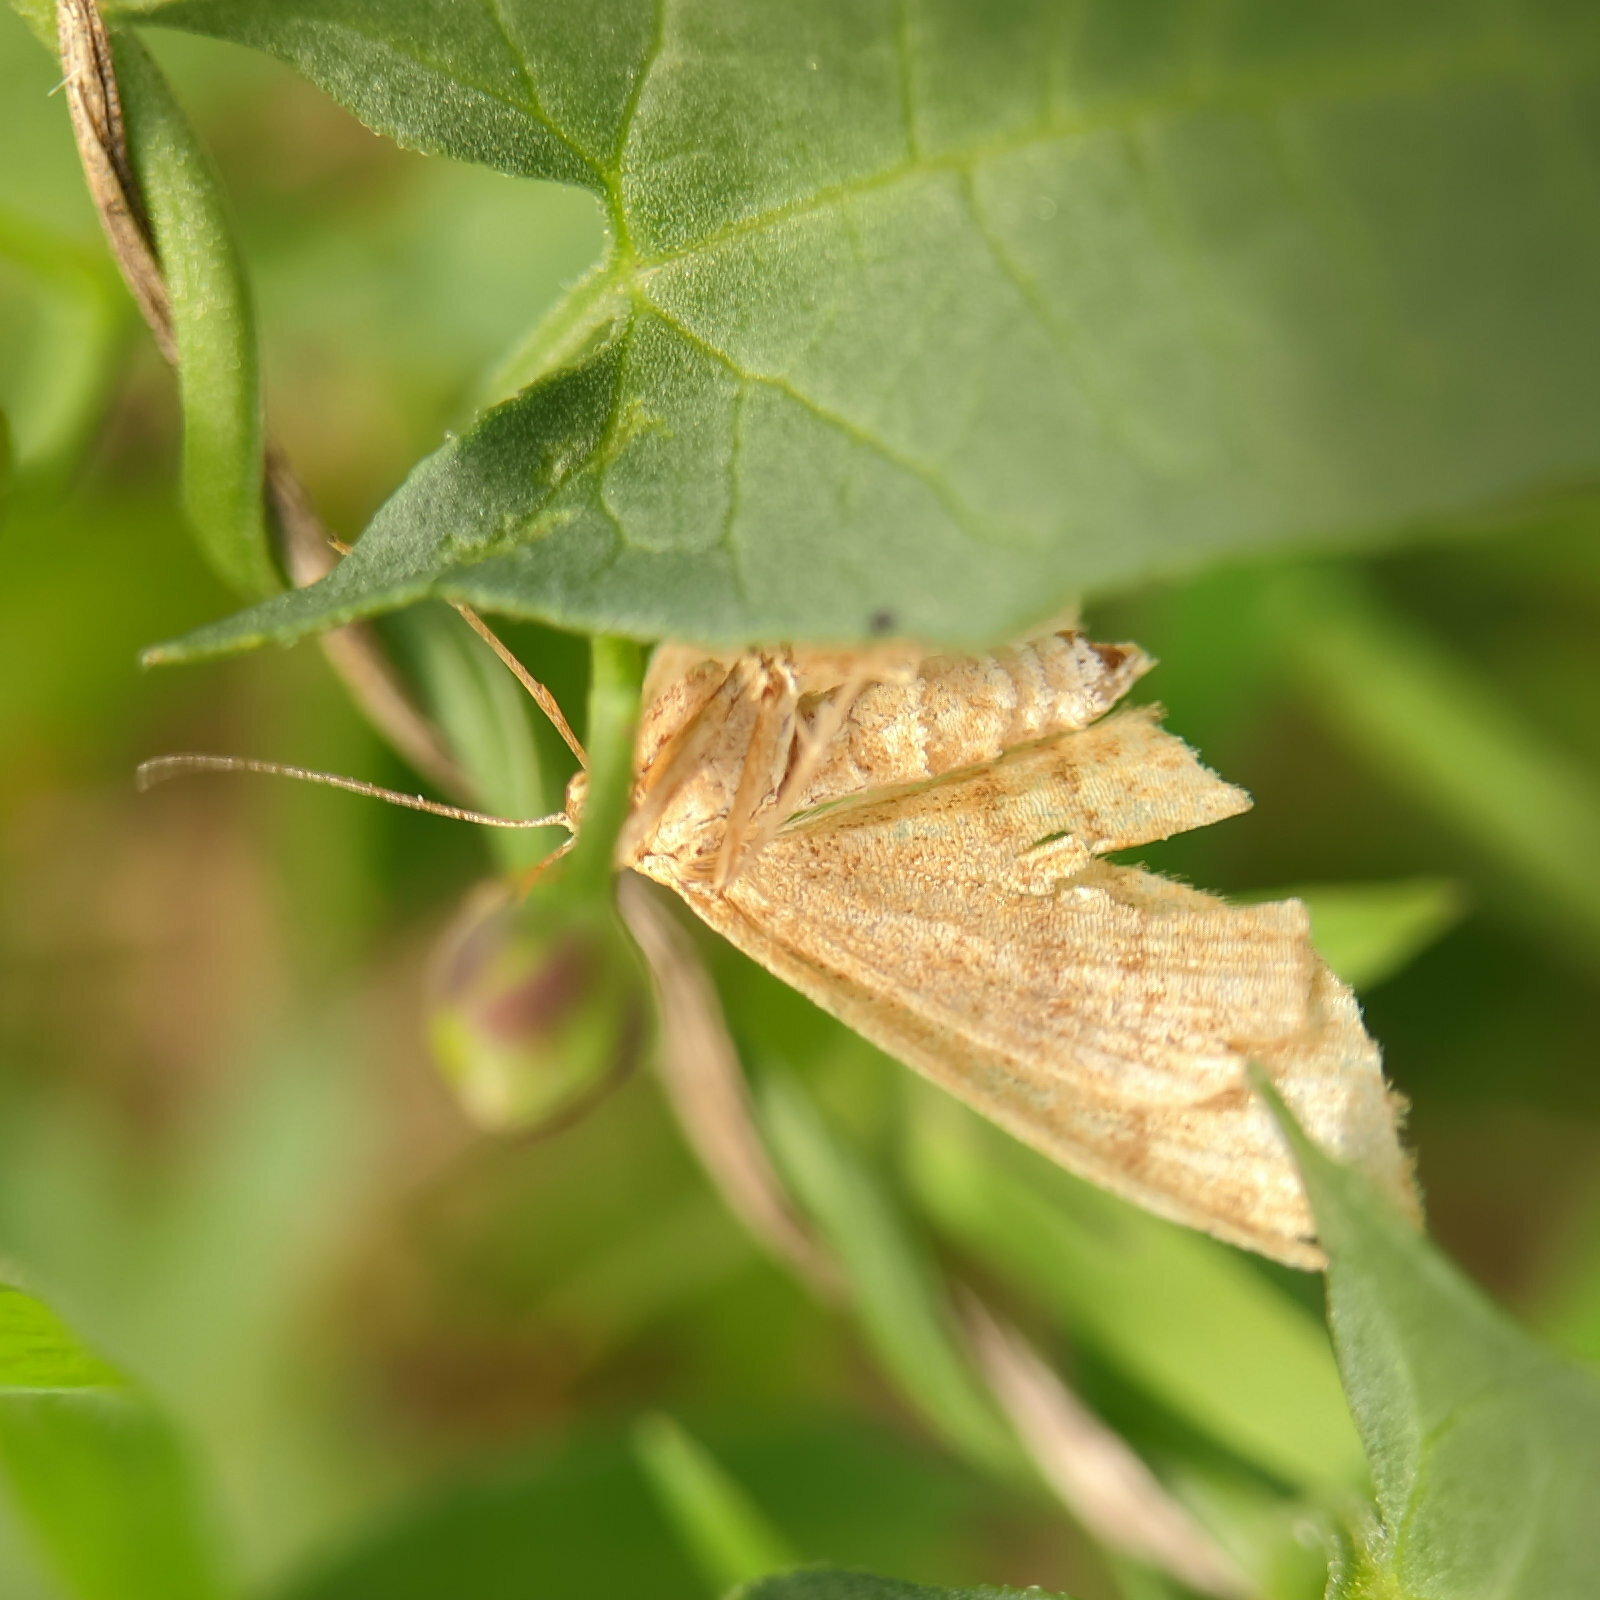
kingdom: Animalia
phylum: Arthropoda
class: Insecta
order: Lepidoptera
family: Geometridae
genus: Idaea
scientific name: Idaea ochrata
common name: Bright wave
